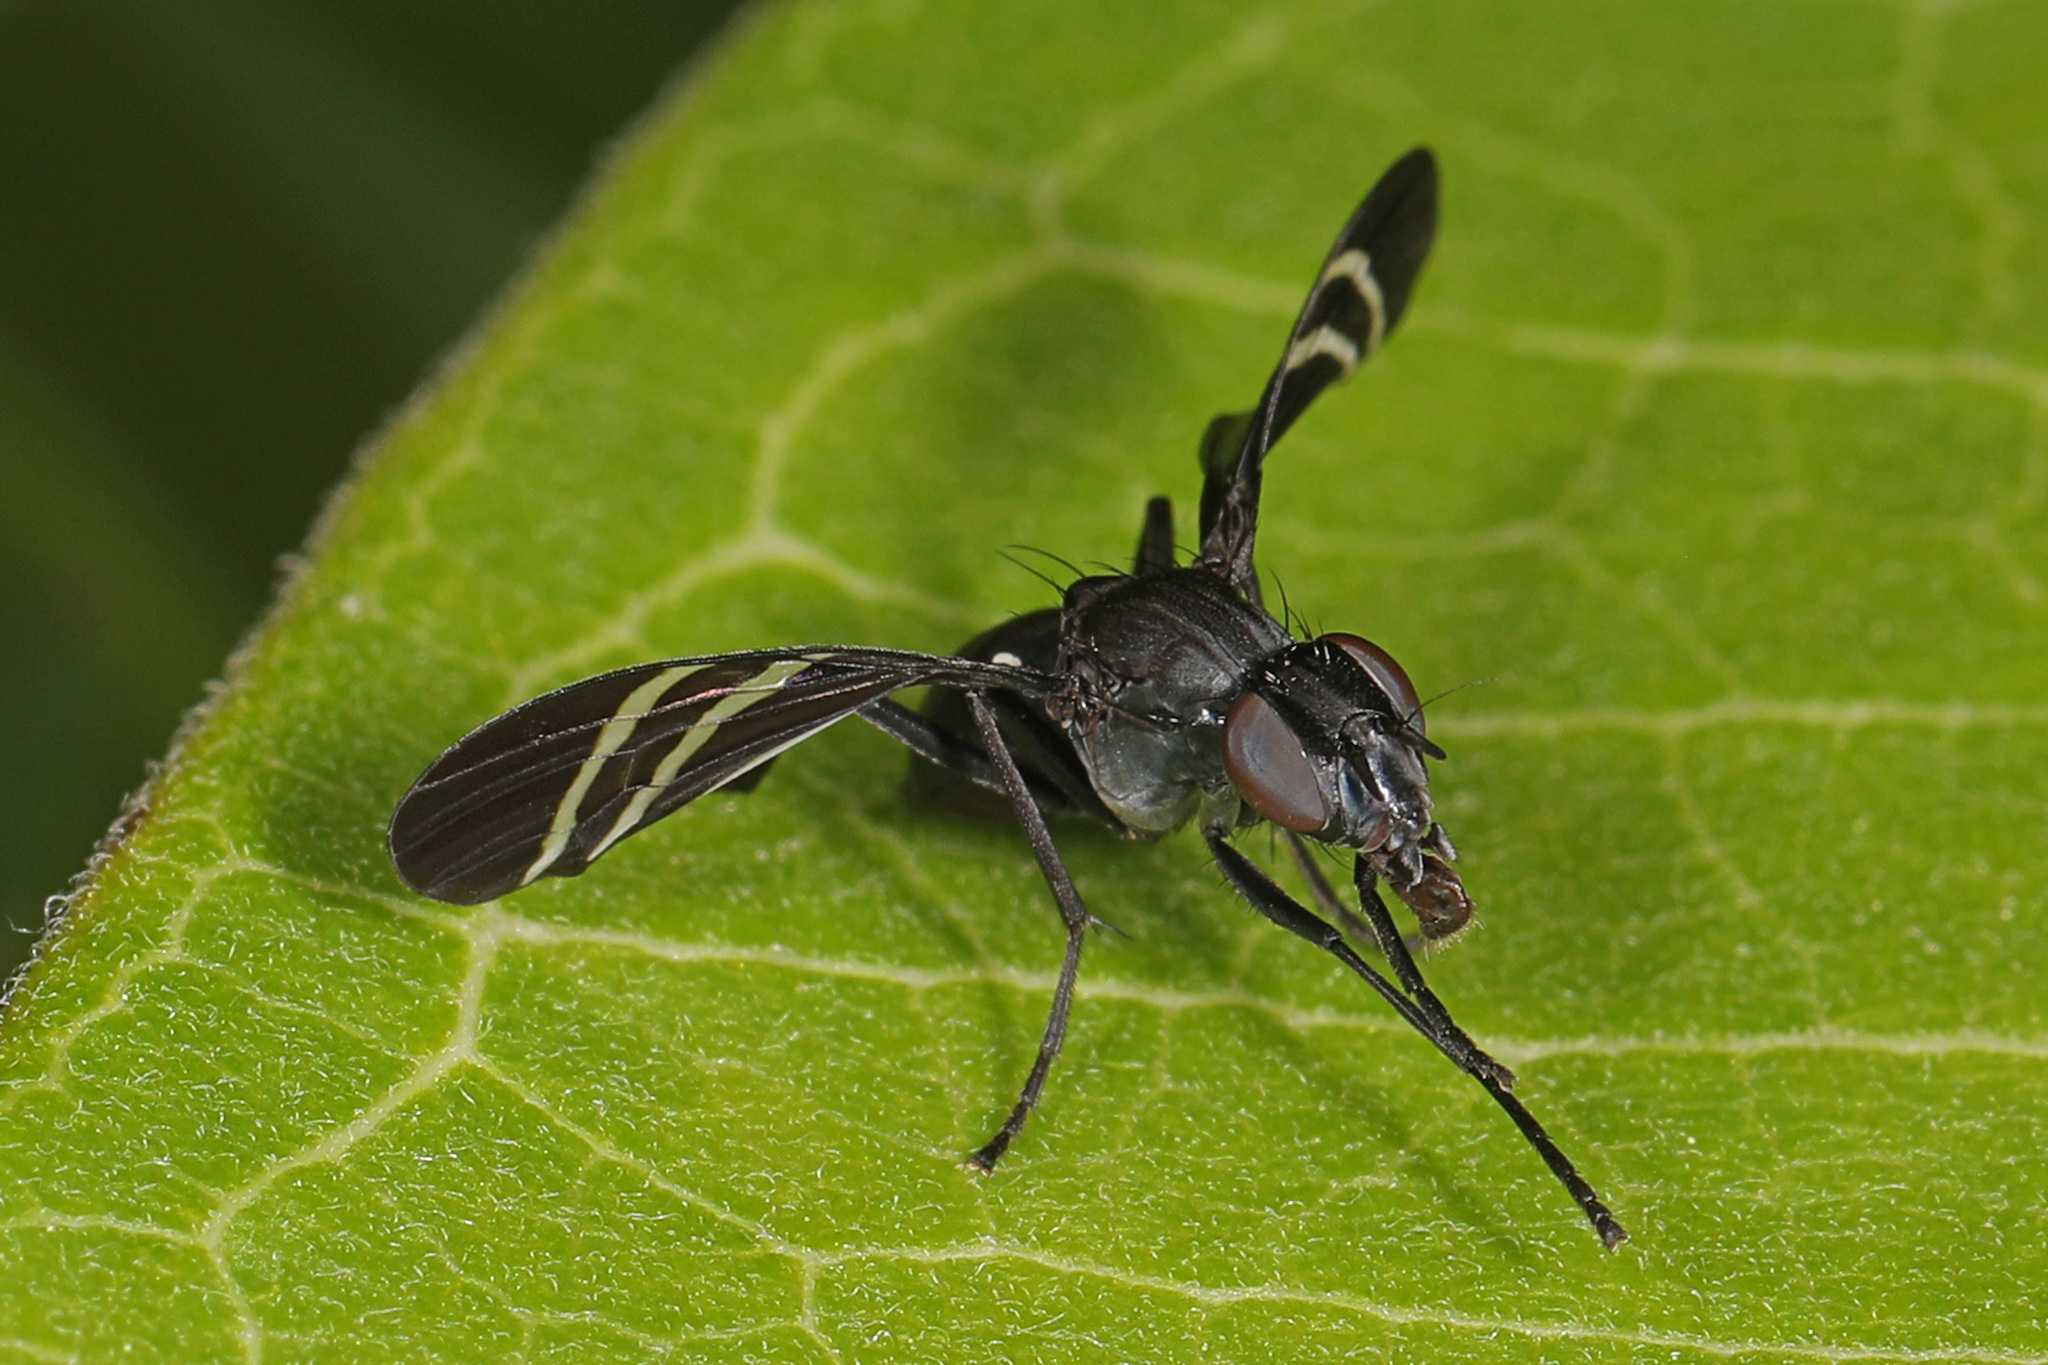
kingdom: Animalia
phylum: Arthropoda
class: Insecta
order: Diptera
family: Ulidiidae
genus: Tritoxa
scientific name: Tritoxa flexa
